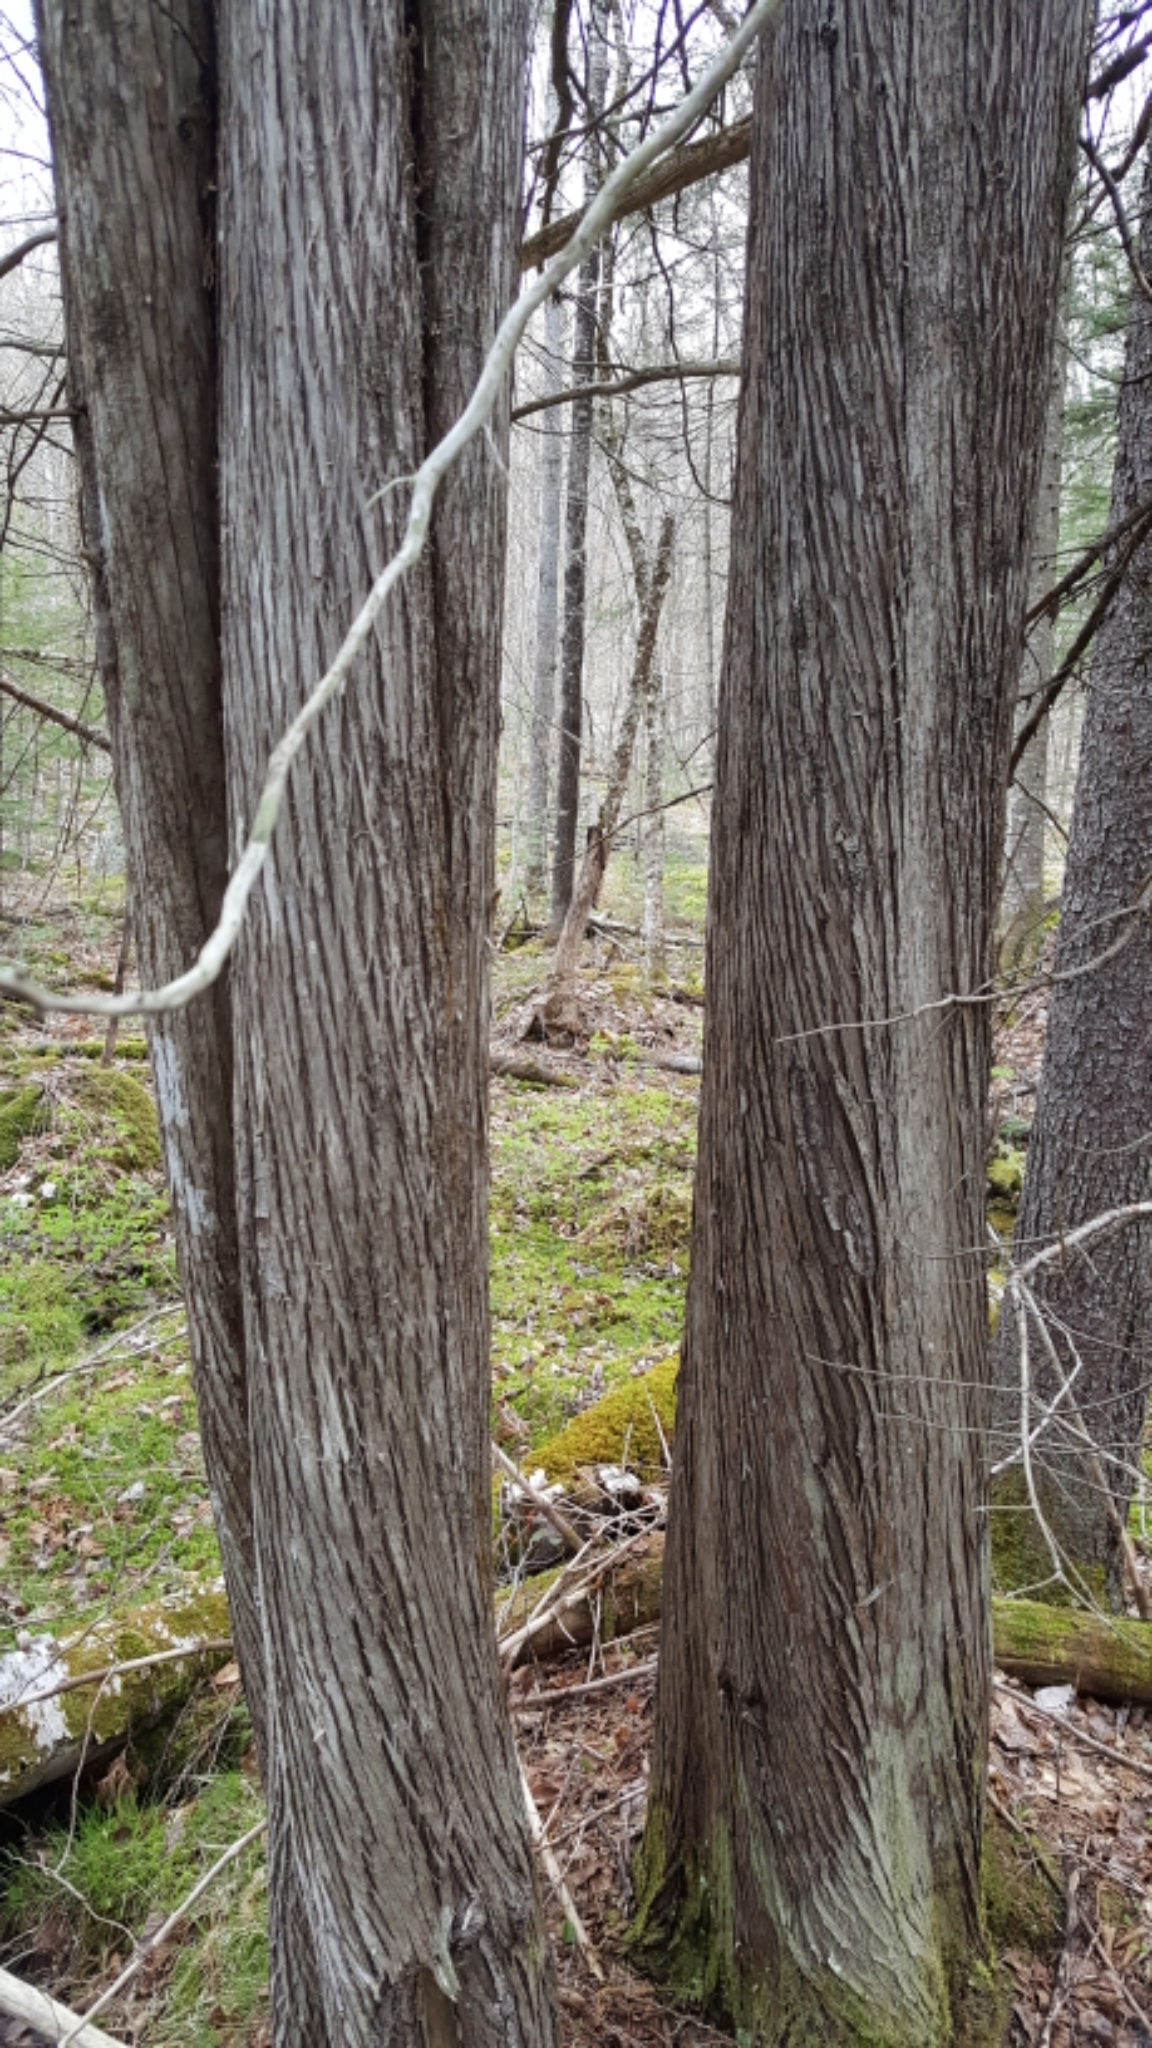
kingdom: Plantae
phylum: Tracheophyta
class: Pinopsida
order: Pinales
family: Cupressaceae
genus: Thuja
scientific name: Thuja occidentalis
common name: Northern white-cedar
